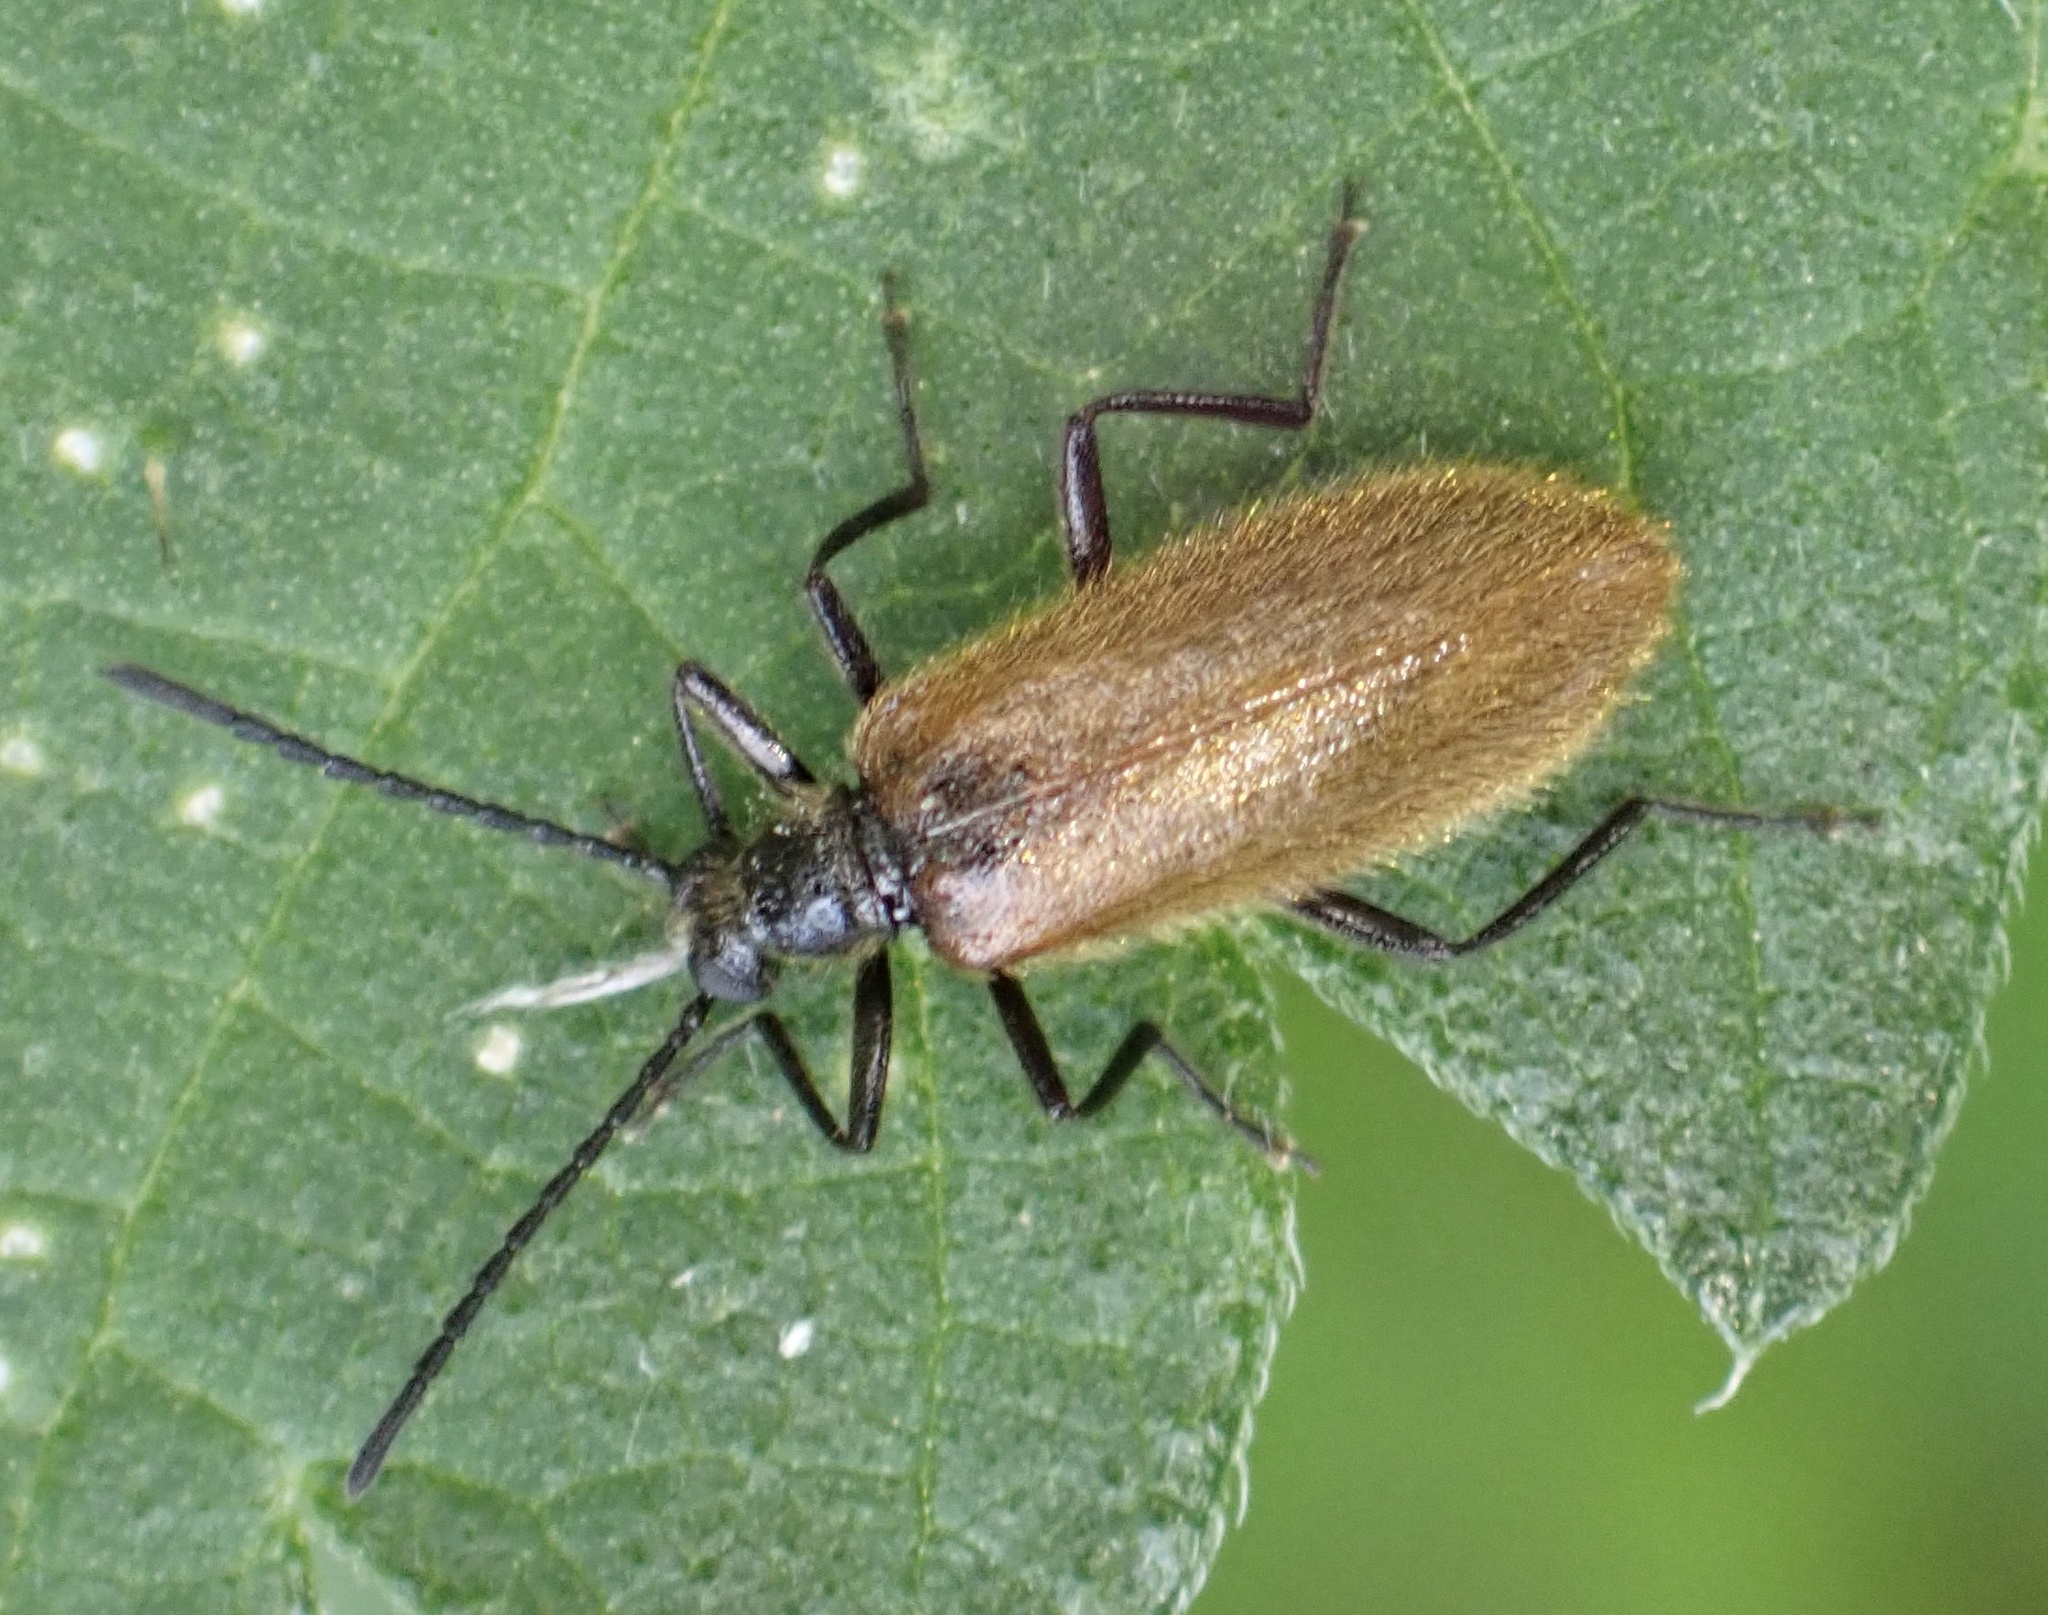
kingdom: Animalia
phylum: Arthropoda
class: Insecta
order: Coleoptera
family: Tenebrionidae
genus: Lagria
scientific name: Lagria hirta
